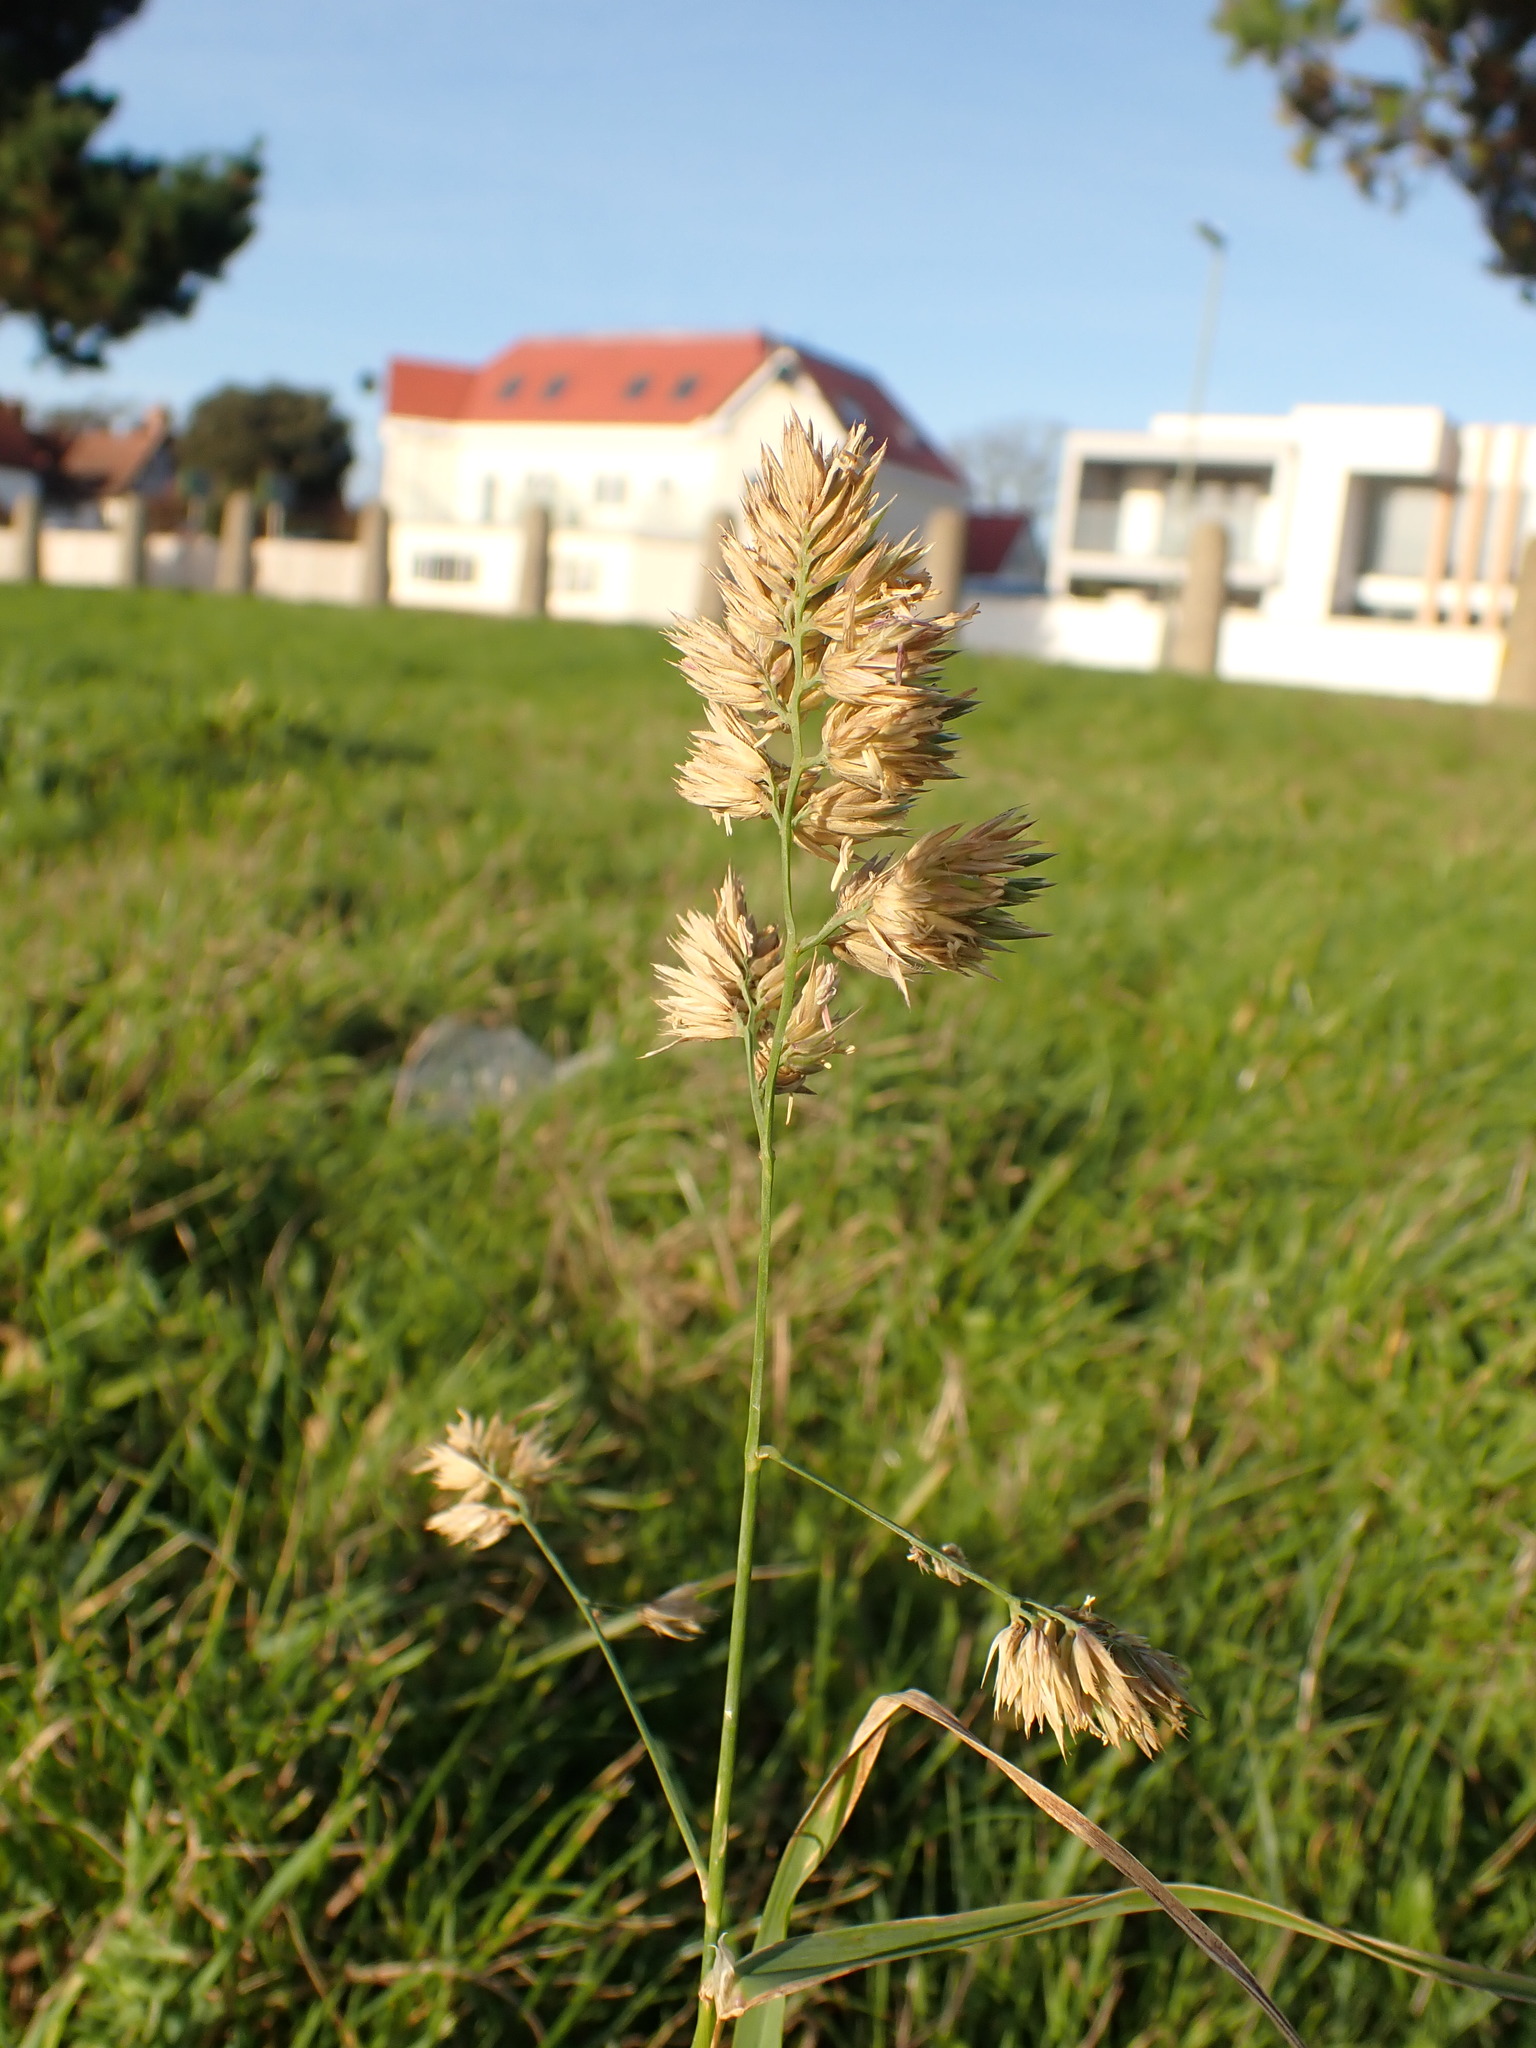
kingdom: Plantae
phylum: Tracheophyta
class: Liliopsida
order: Poales
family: Poaceae
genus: Dactylis
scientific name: Dactylis glomerata
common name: Orchardgrass
